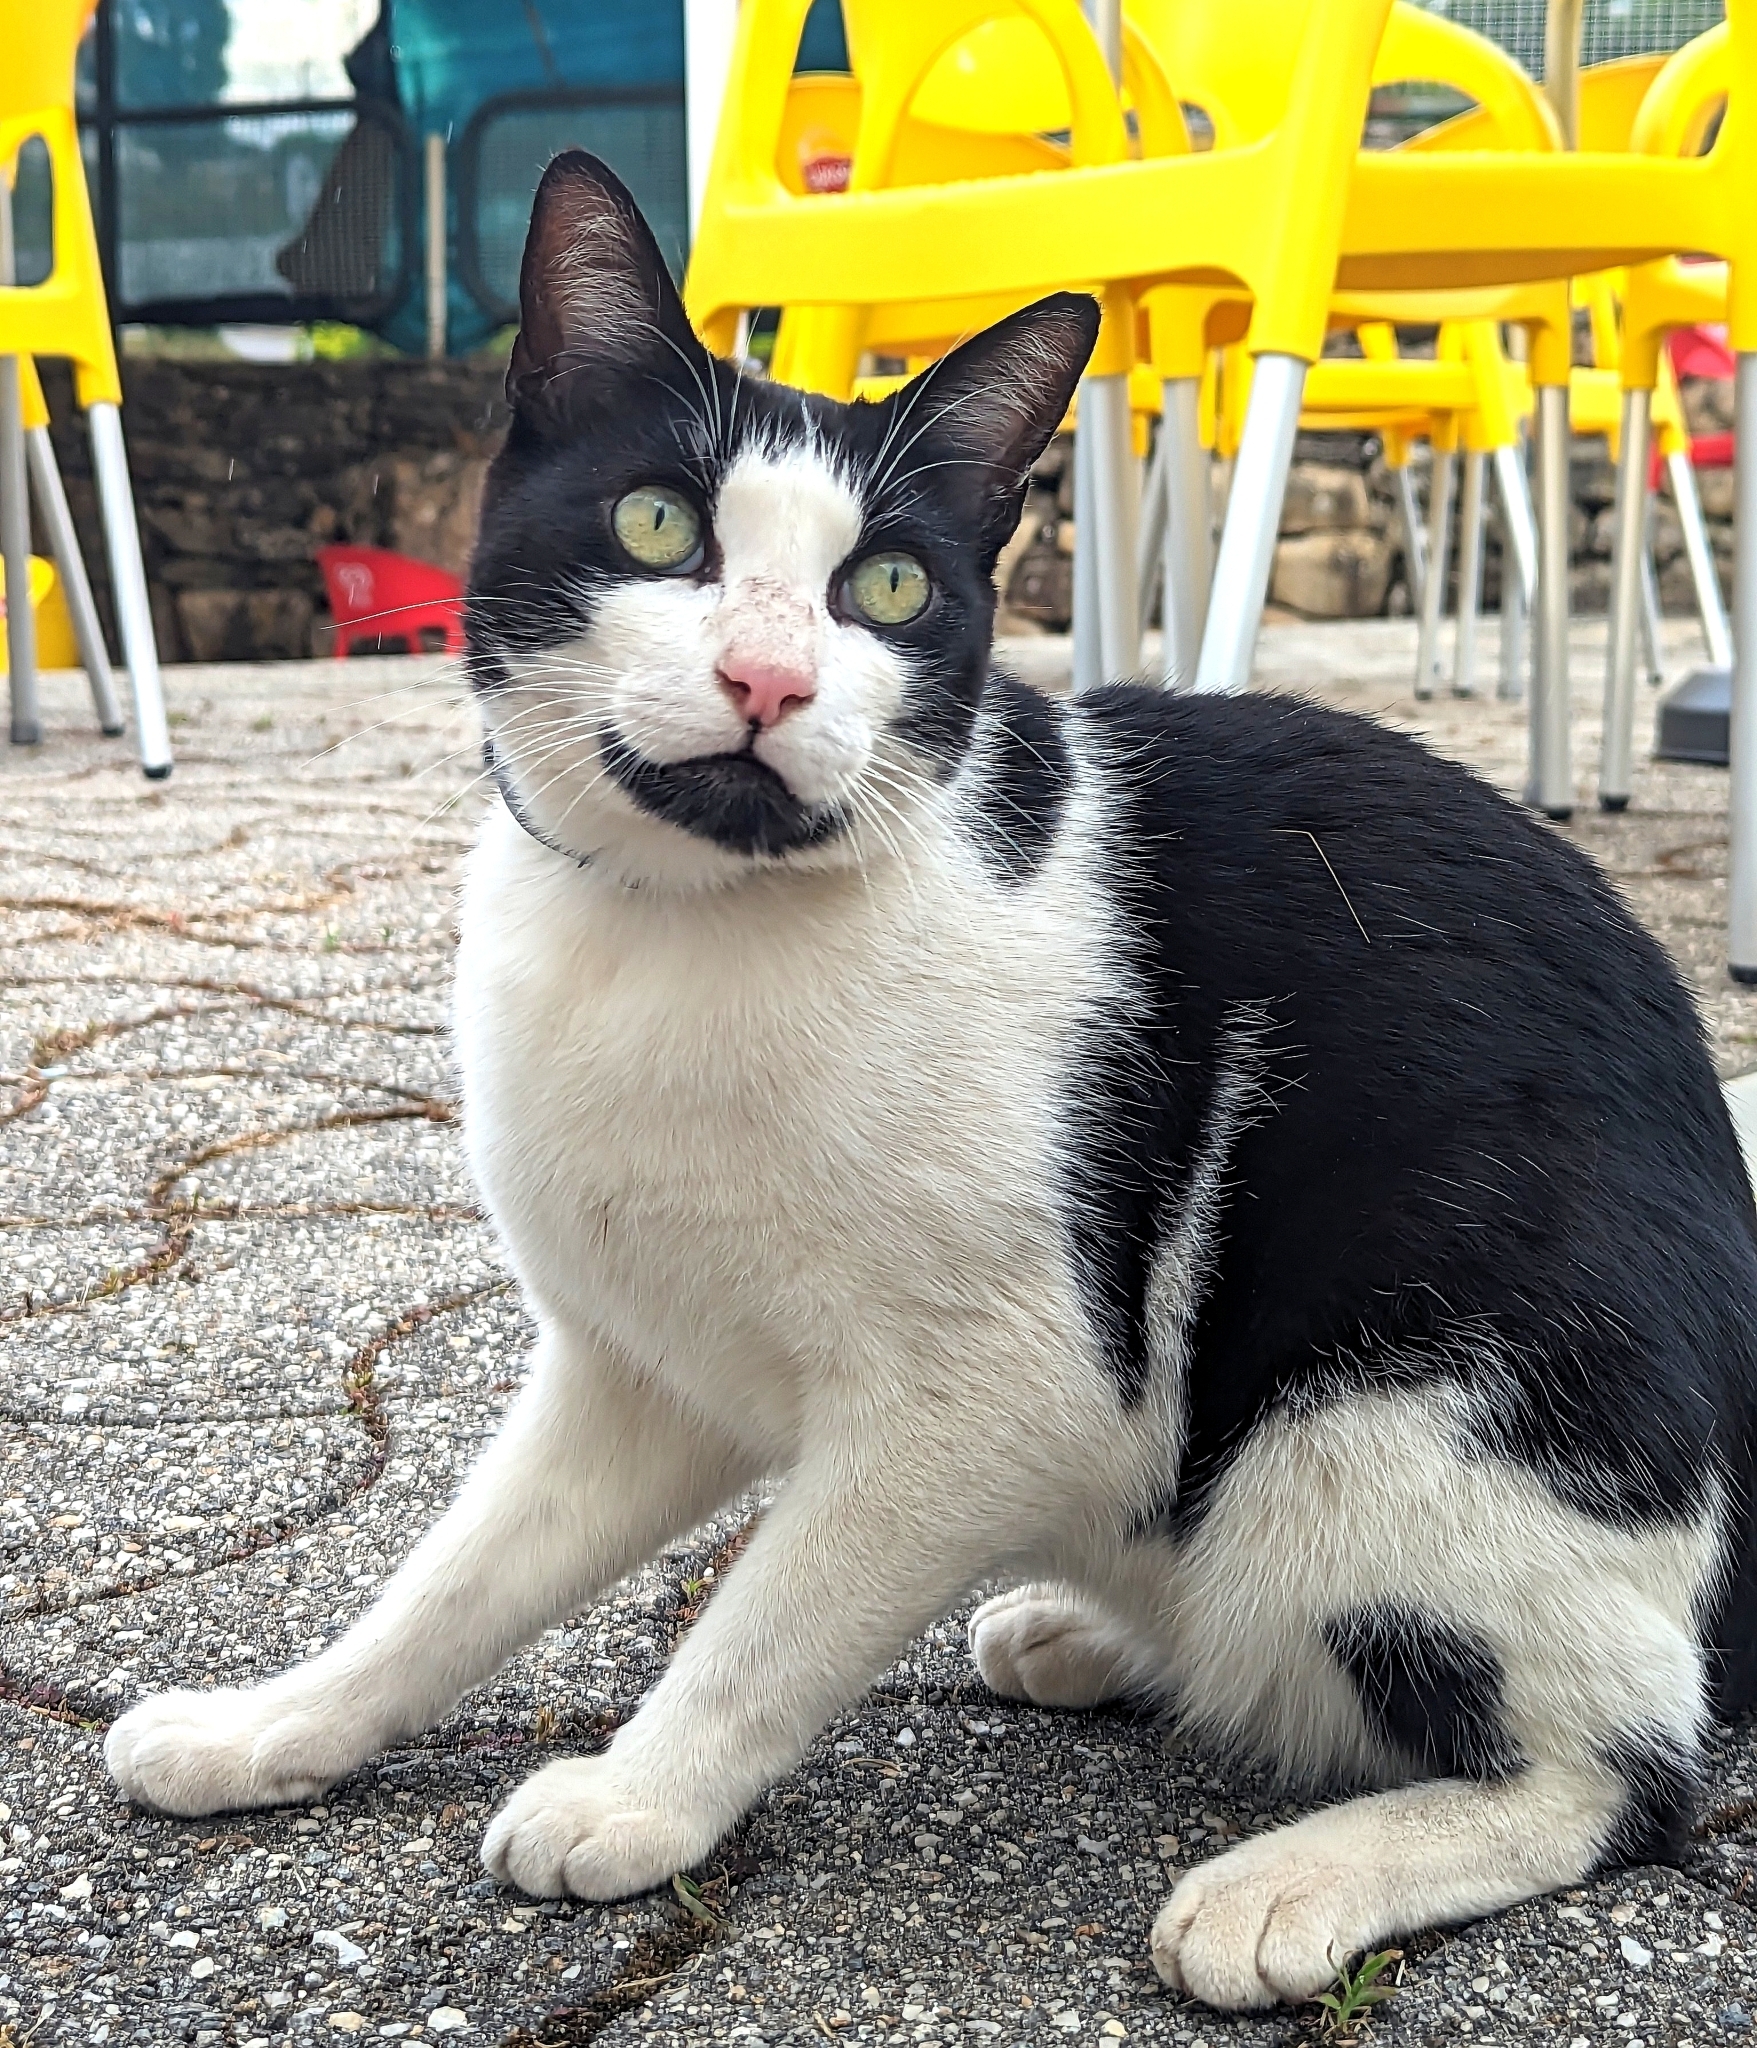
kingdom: Animalia
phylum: Chordata
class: Mammalia
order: Carnivora
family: Felidae
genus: Felis
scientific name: Felis catus
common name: Domestic cat
